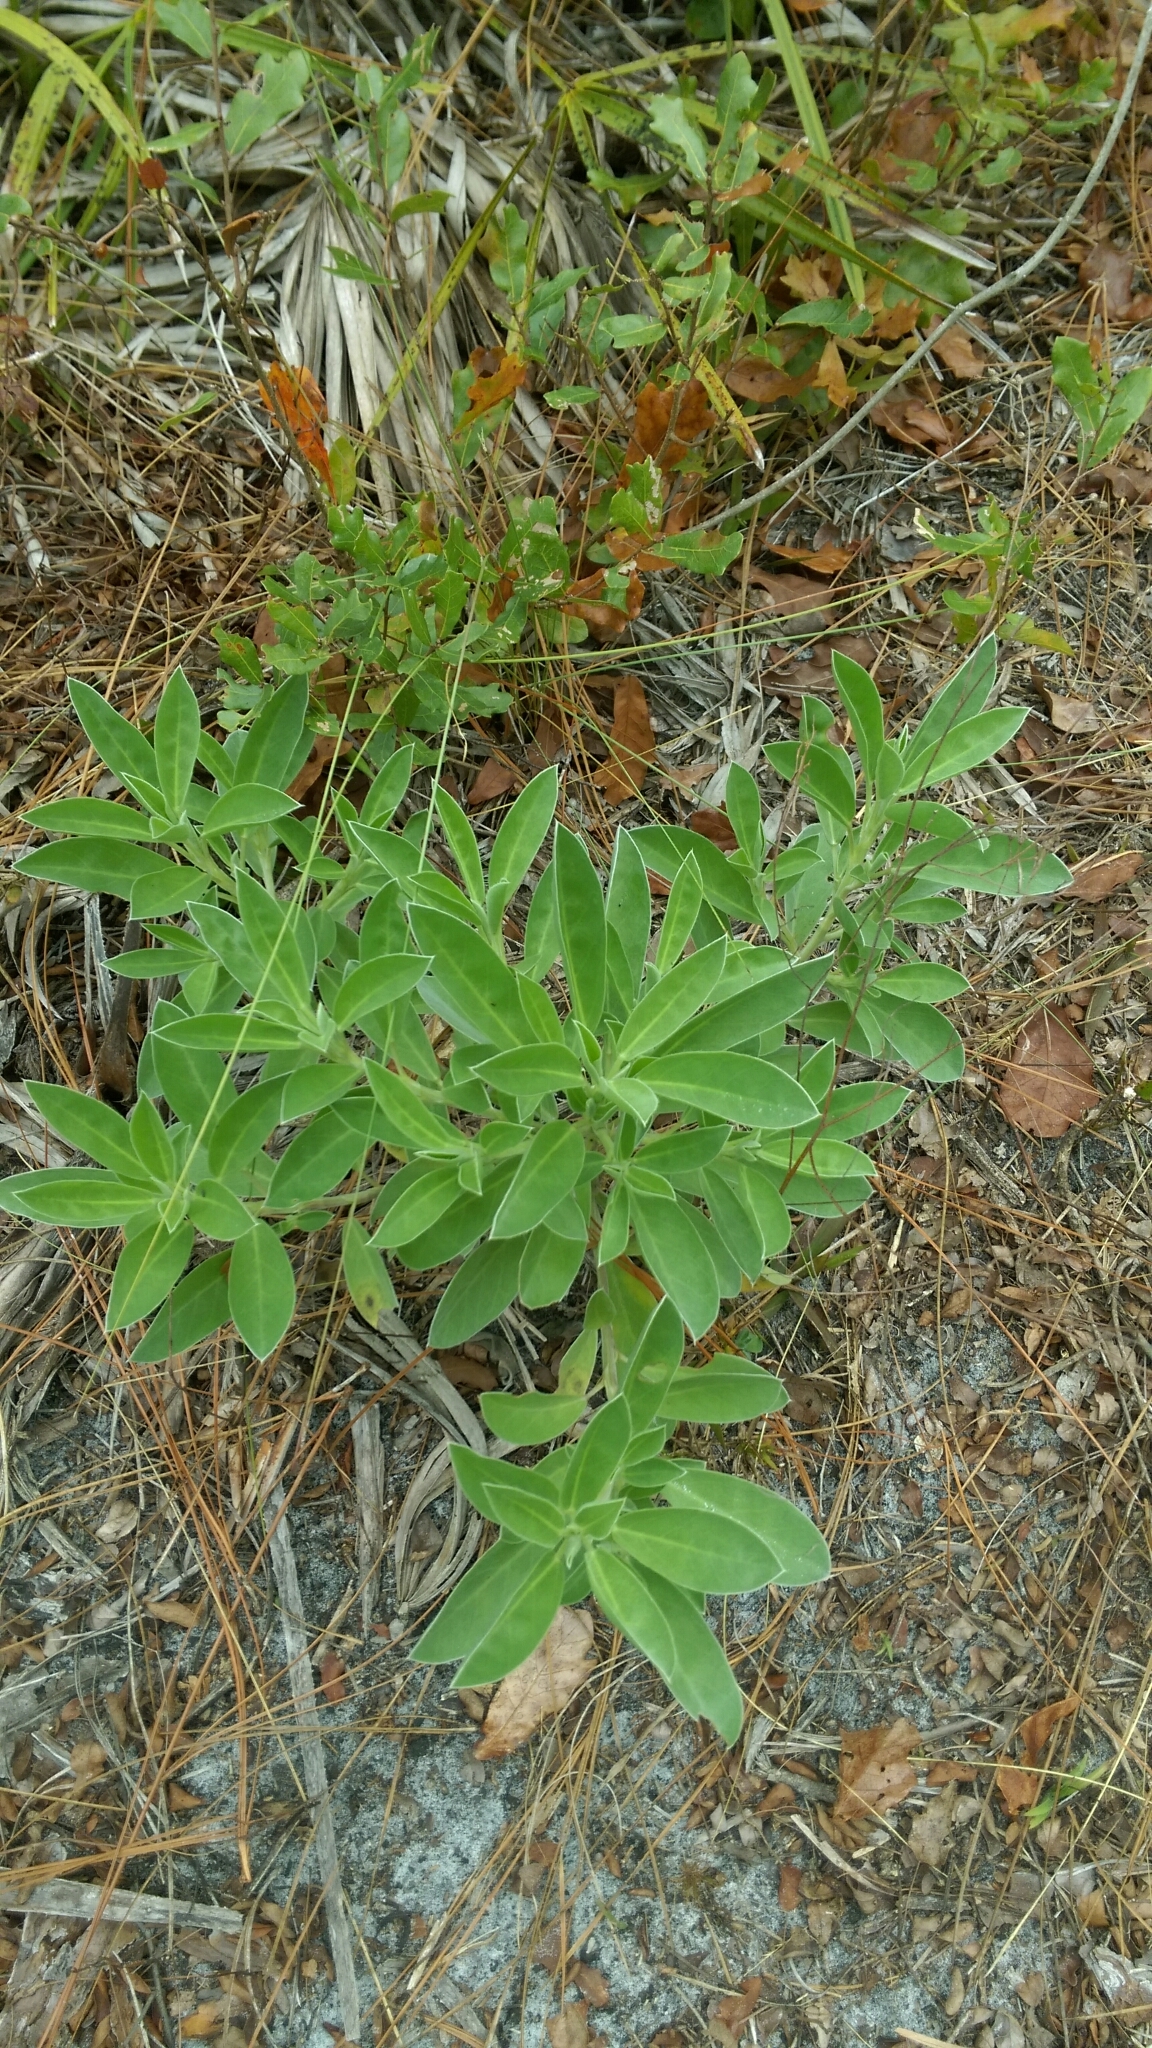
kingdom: Plantae
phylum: Tracheophyta
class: Magnoliopsida
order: Fabales
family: Fabaceae
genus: Lupinus
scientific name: Lupinus
